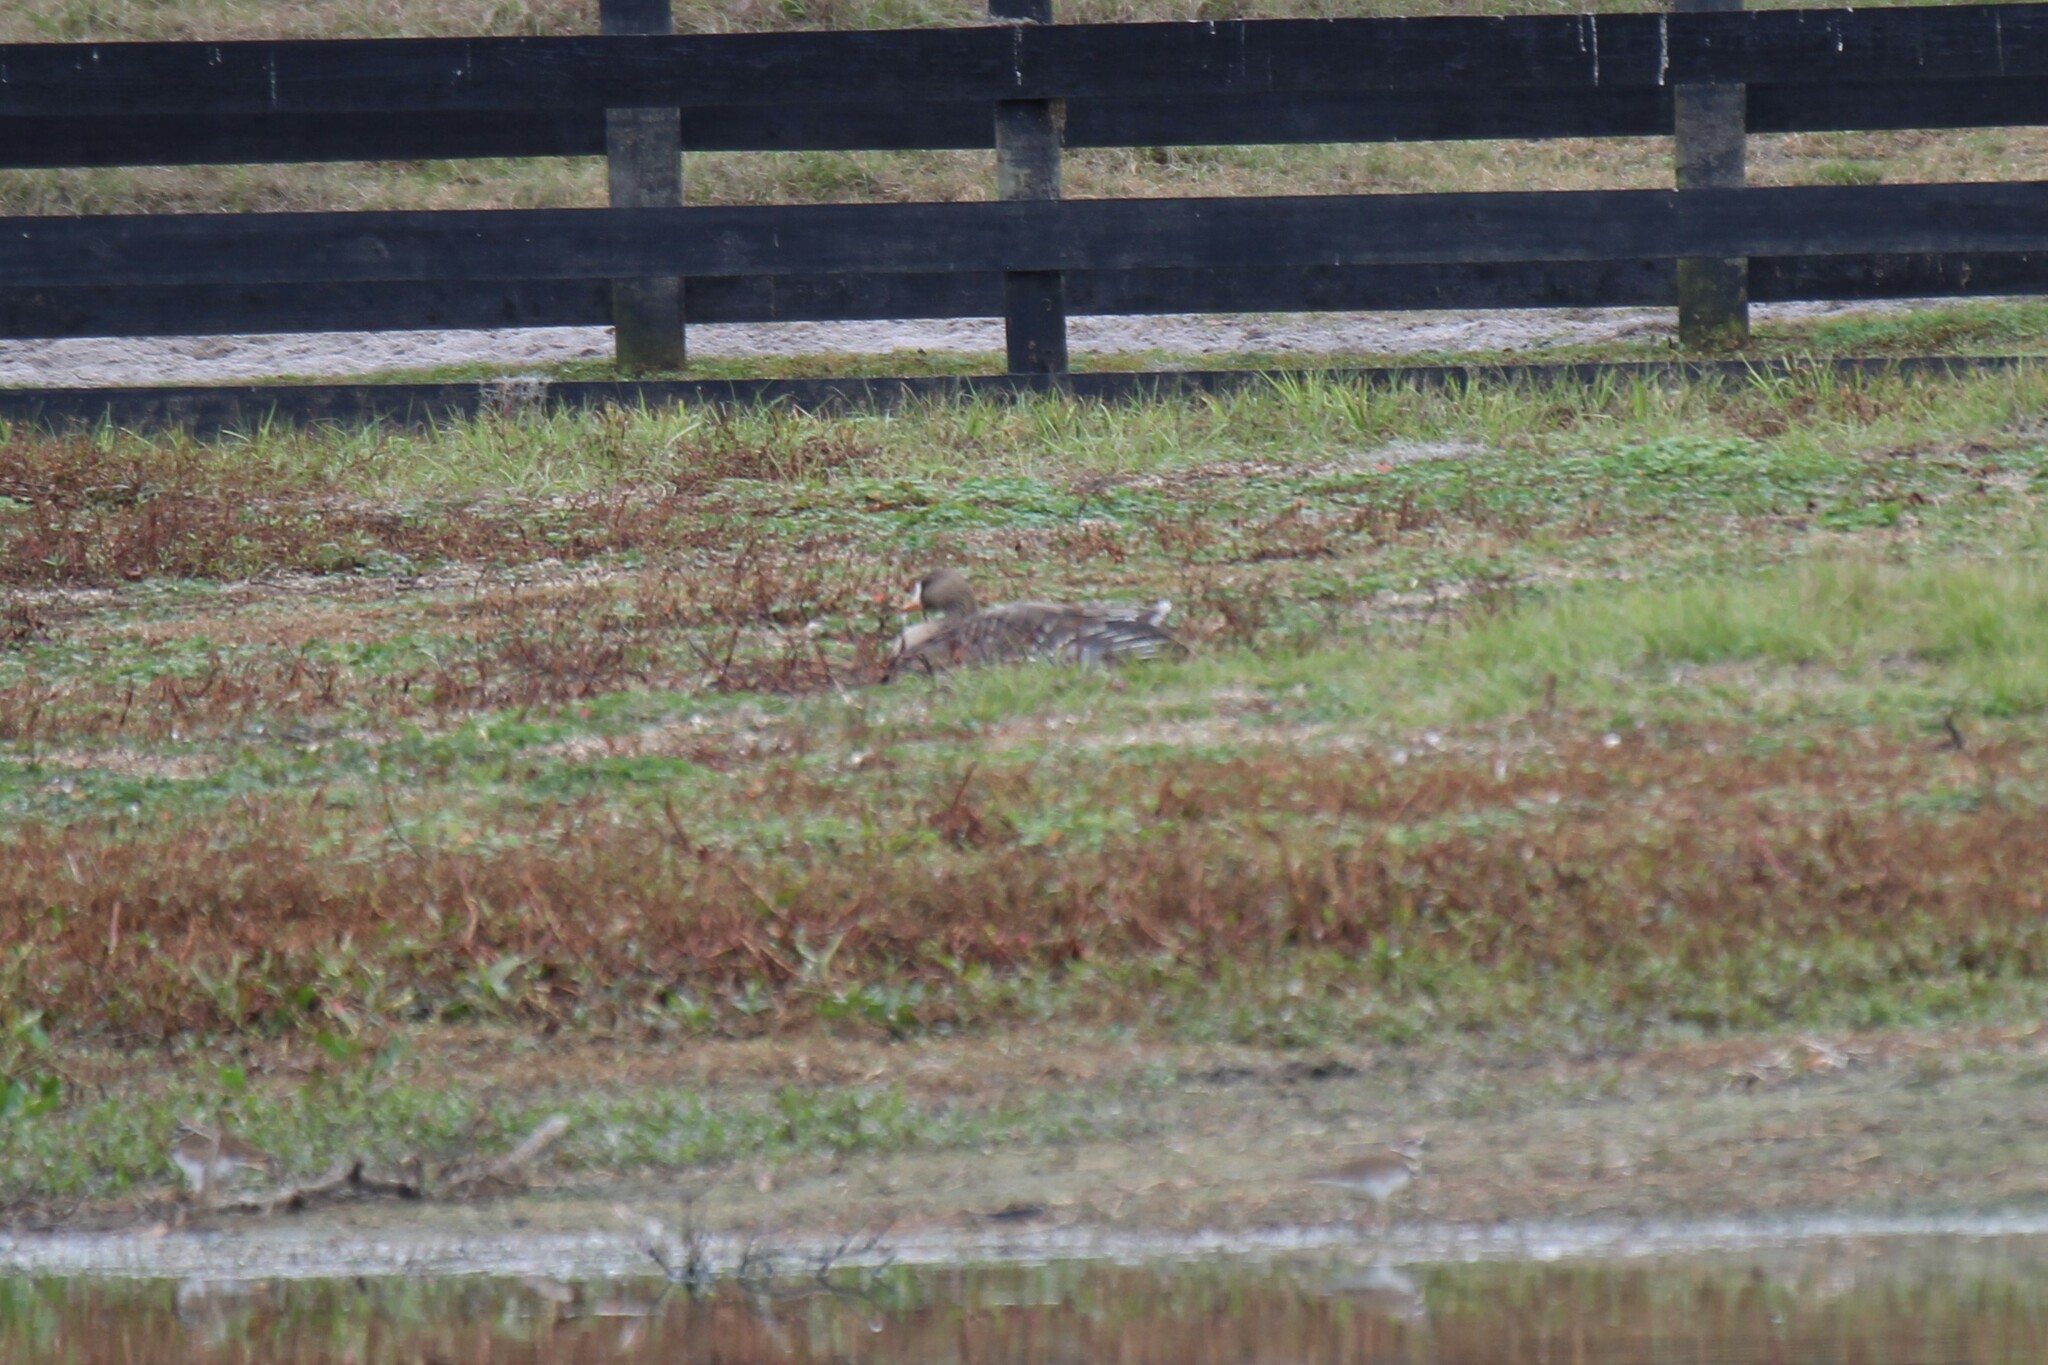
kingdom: Animalia
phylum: Chordata
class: Aves
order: Anseriformes
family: Anatidae
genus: Anser
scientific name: Anser albifrons
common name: Greater white-fronted goose
